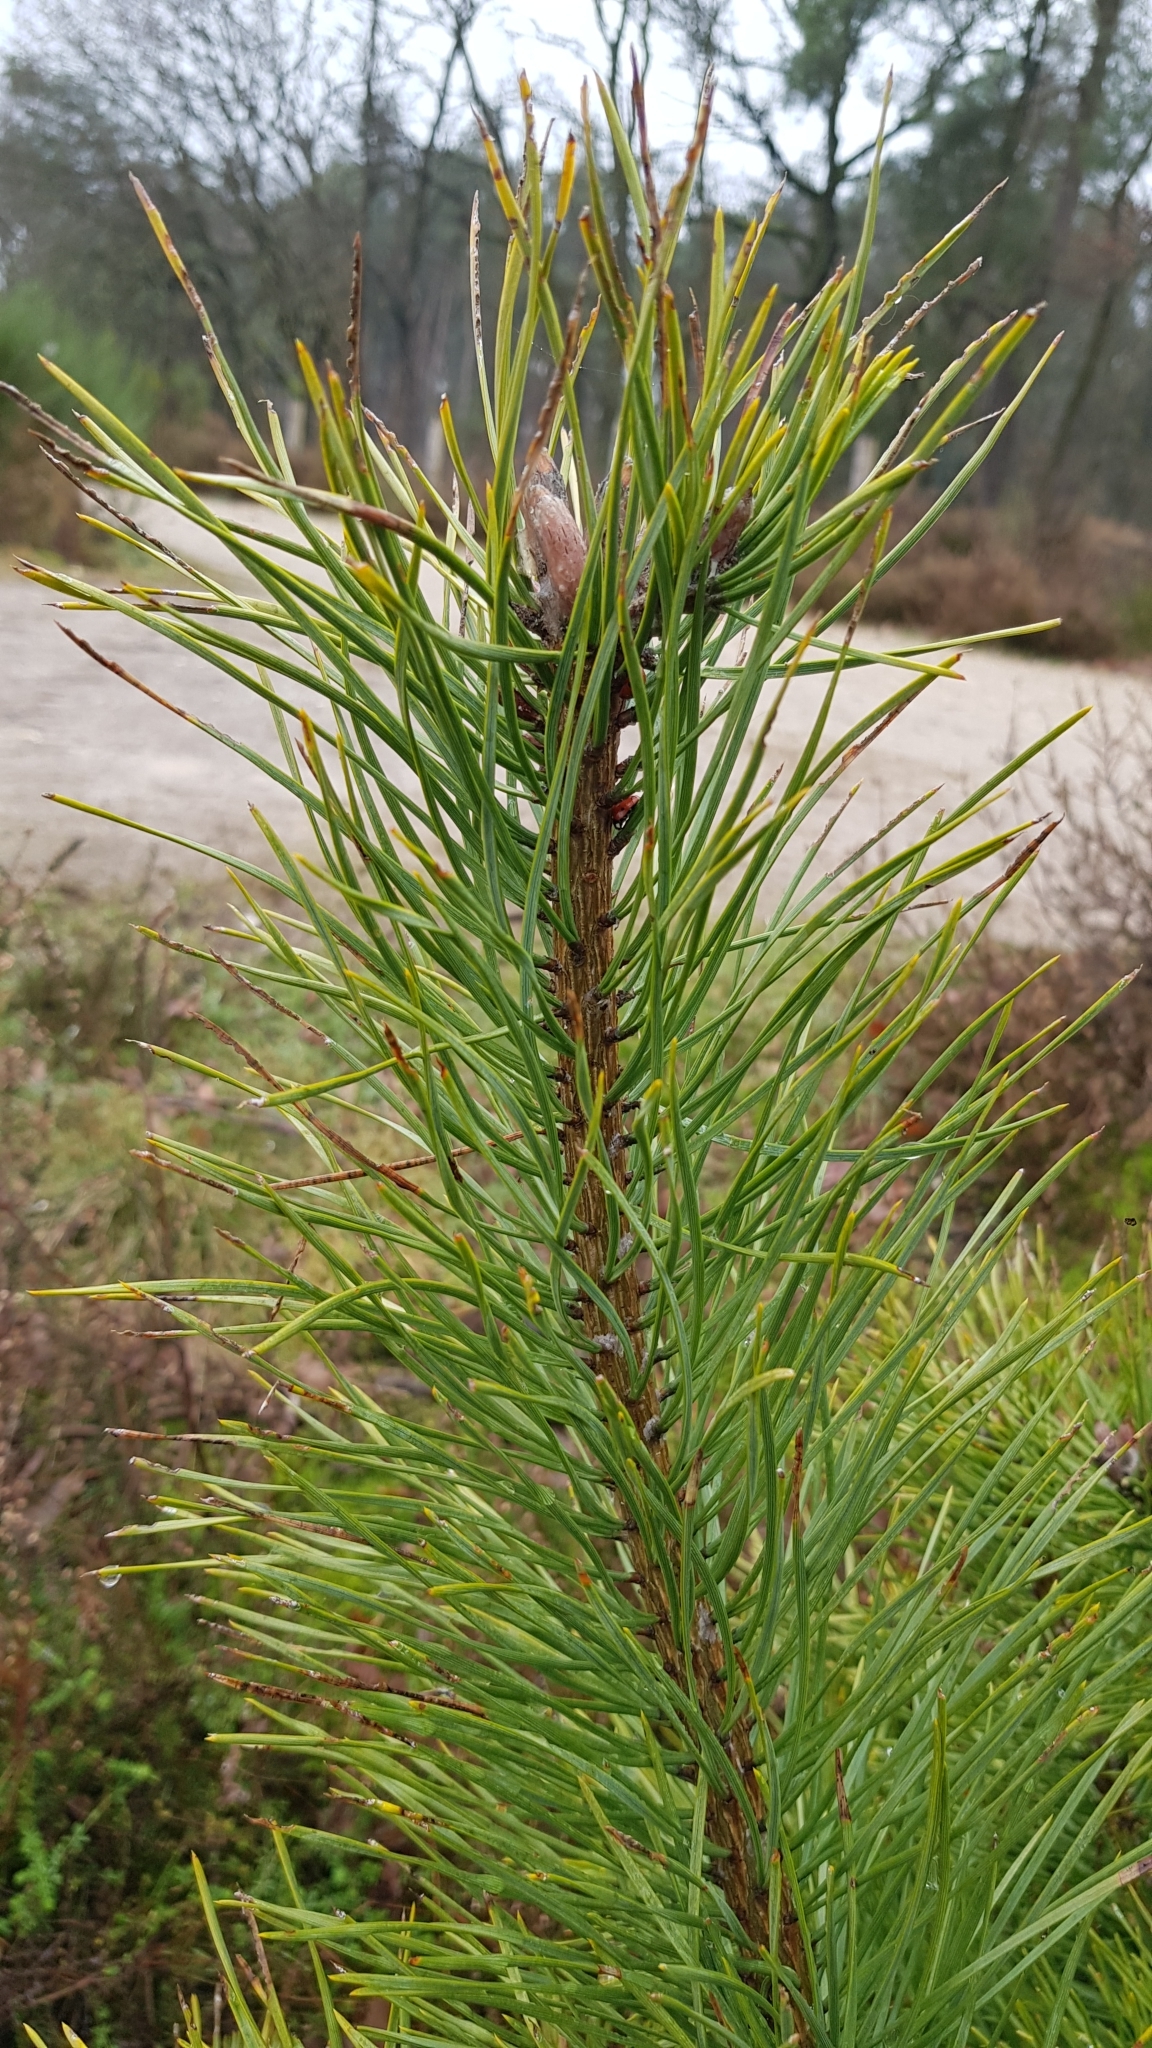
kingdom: Plantae
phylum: Tracheophyta
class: Pinopsida
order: Pinales
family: Pinaceae
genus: Pinus
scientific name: Pinus sylvestris
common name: Scots pine
